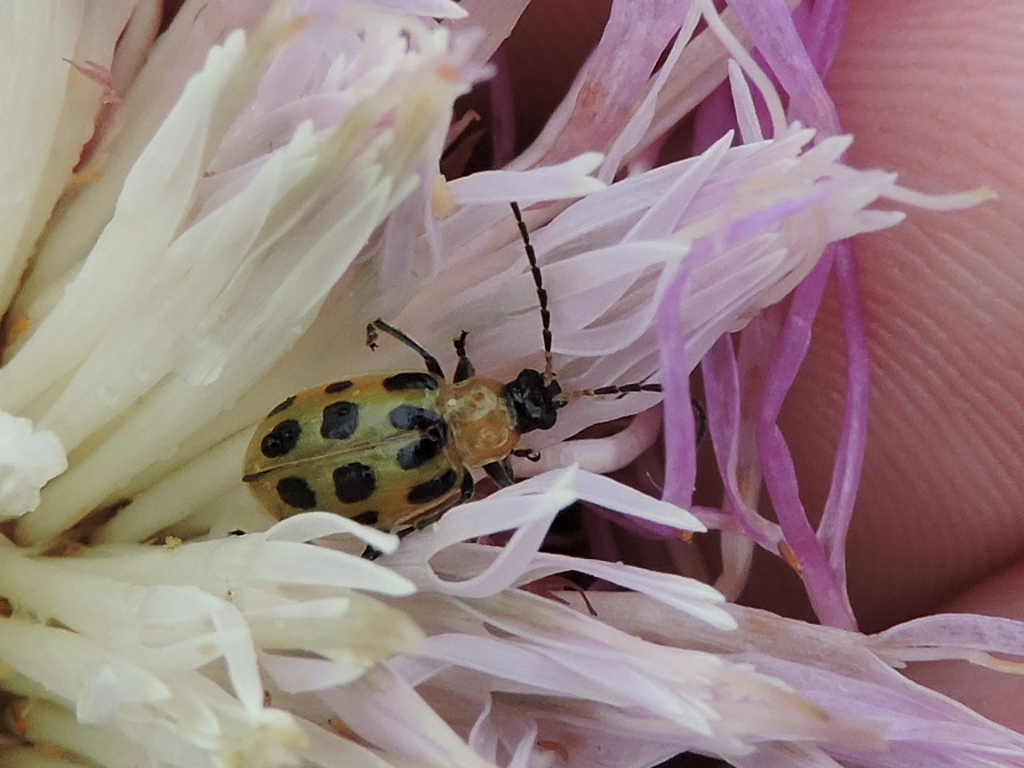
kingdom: Animalia
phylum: Arthropoda
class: Insecta
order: Coleoptera
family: Chrysomelidae
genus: Diabrotica
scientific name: Diabrotica undecimpunctata
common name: Spotted cucumber beetle
